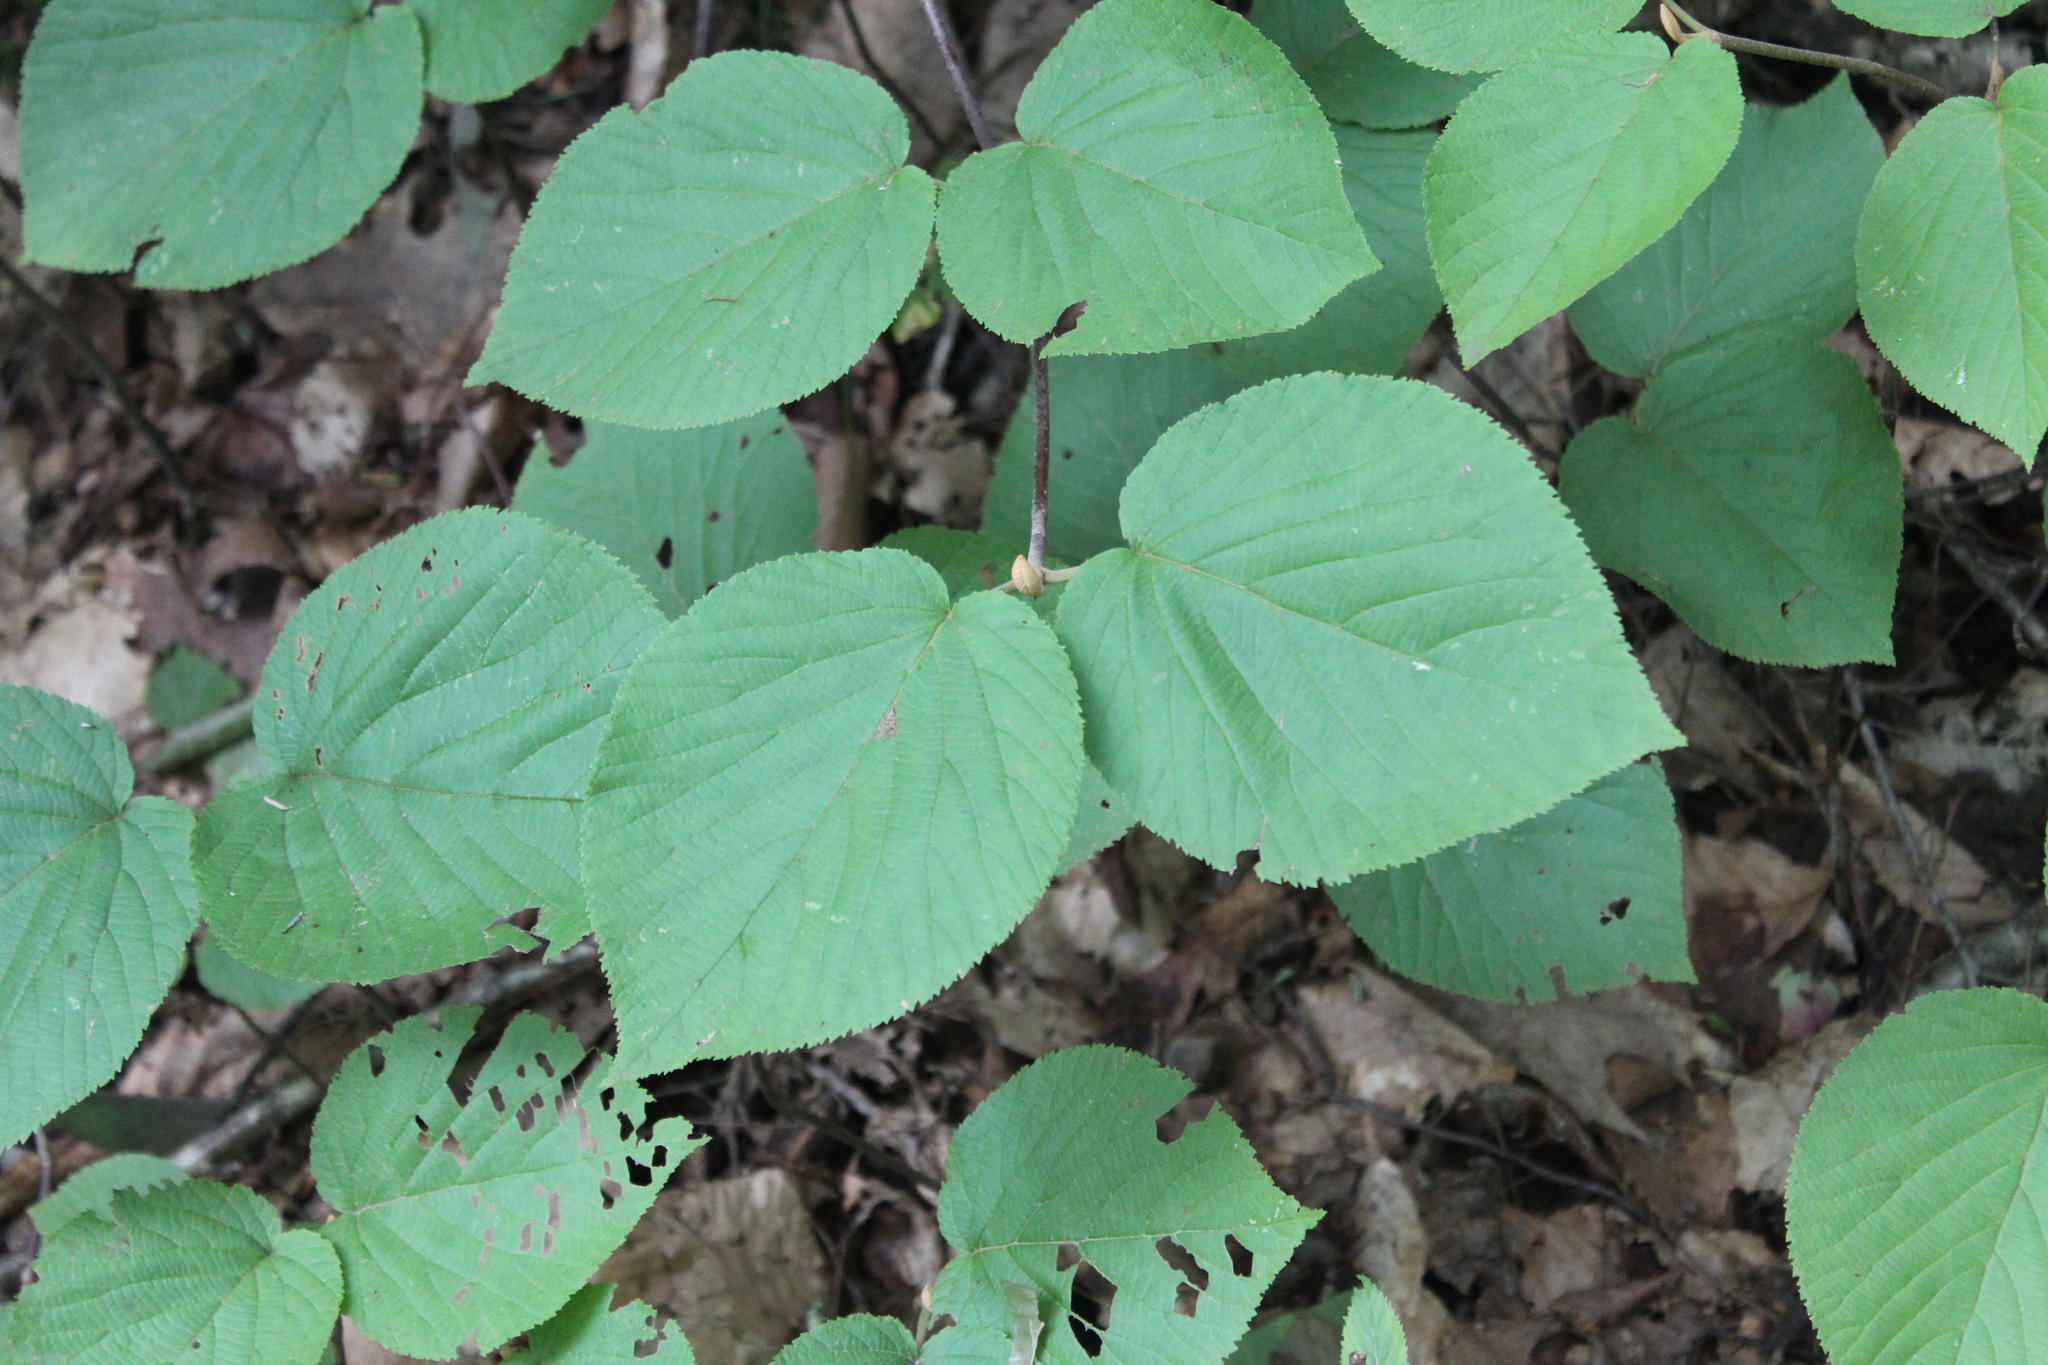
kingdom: Plantae
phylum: Tracheophyta
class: Magnoliopsida
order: Dipsacales
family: Viburnaceae
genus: Viburnum
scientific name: Viburnum lantanoides
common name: Hobblebush
